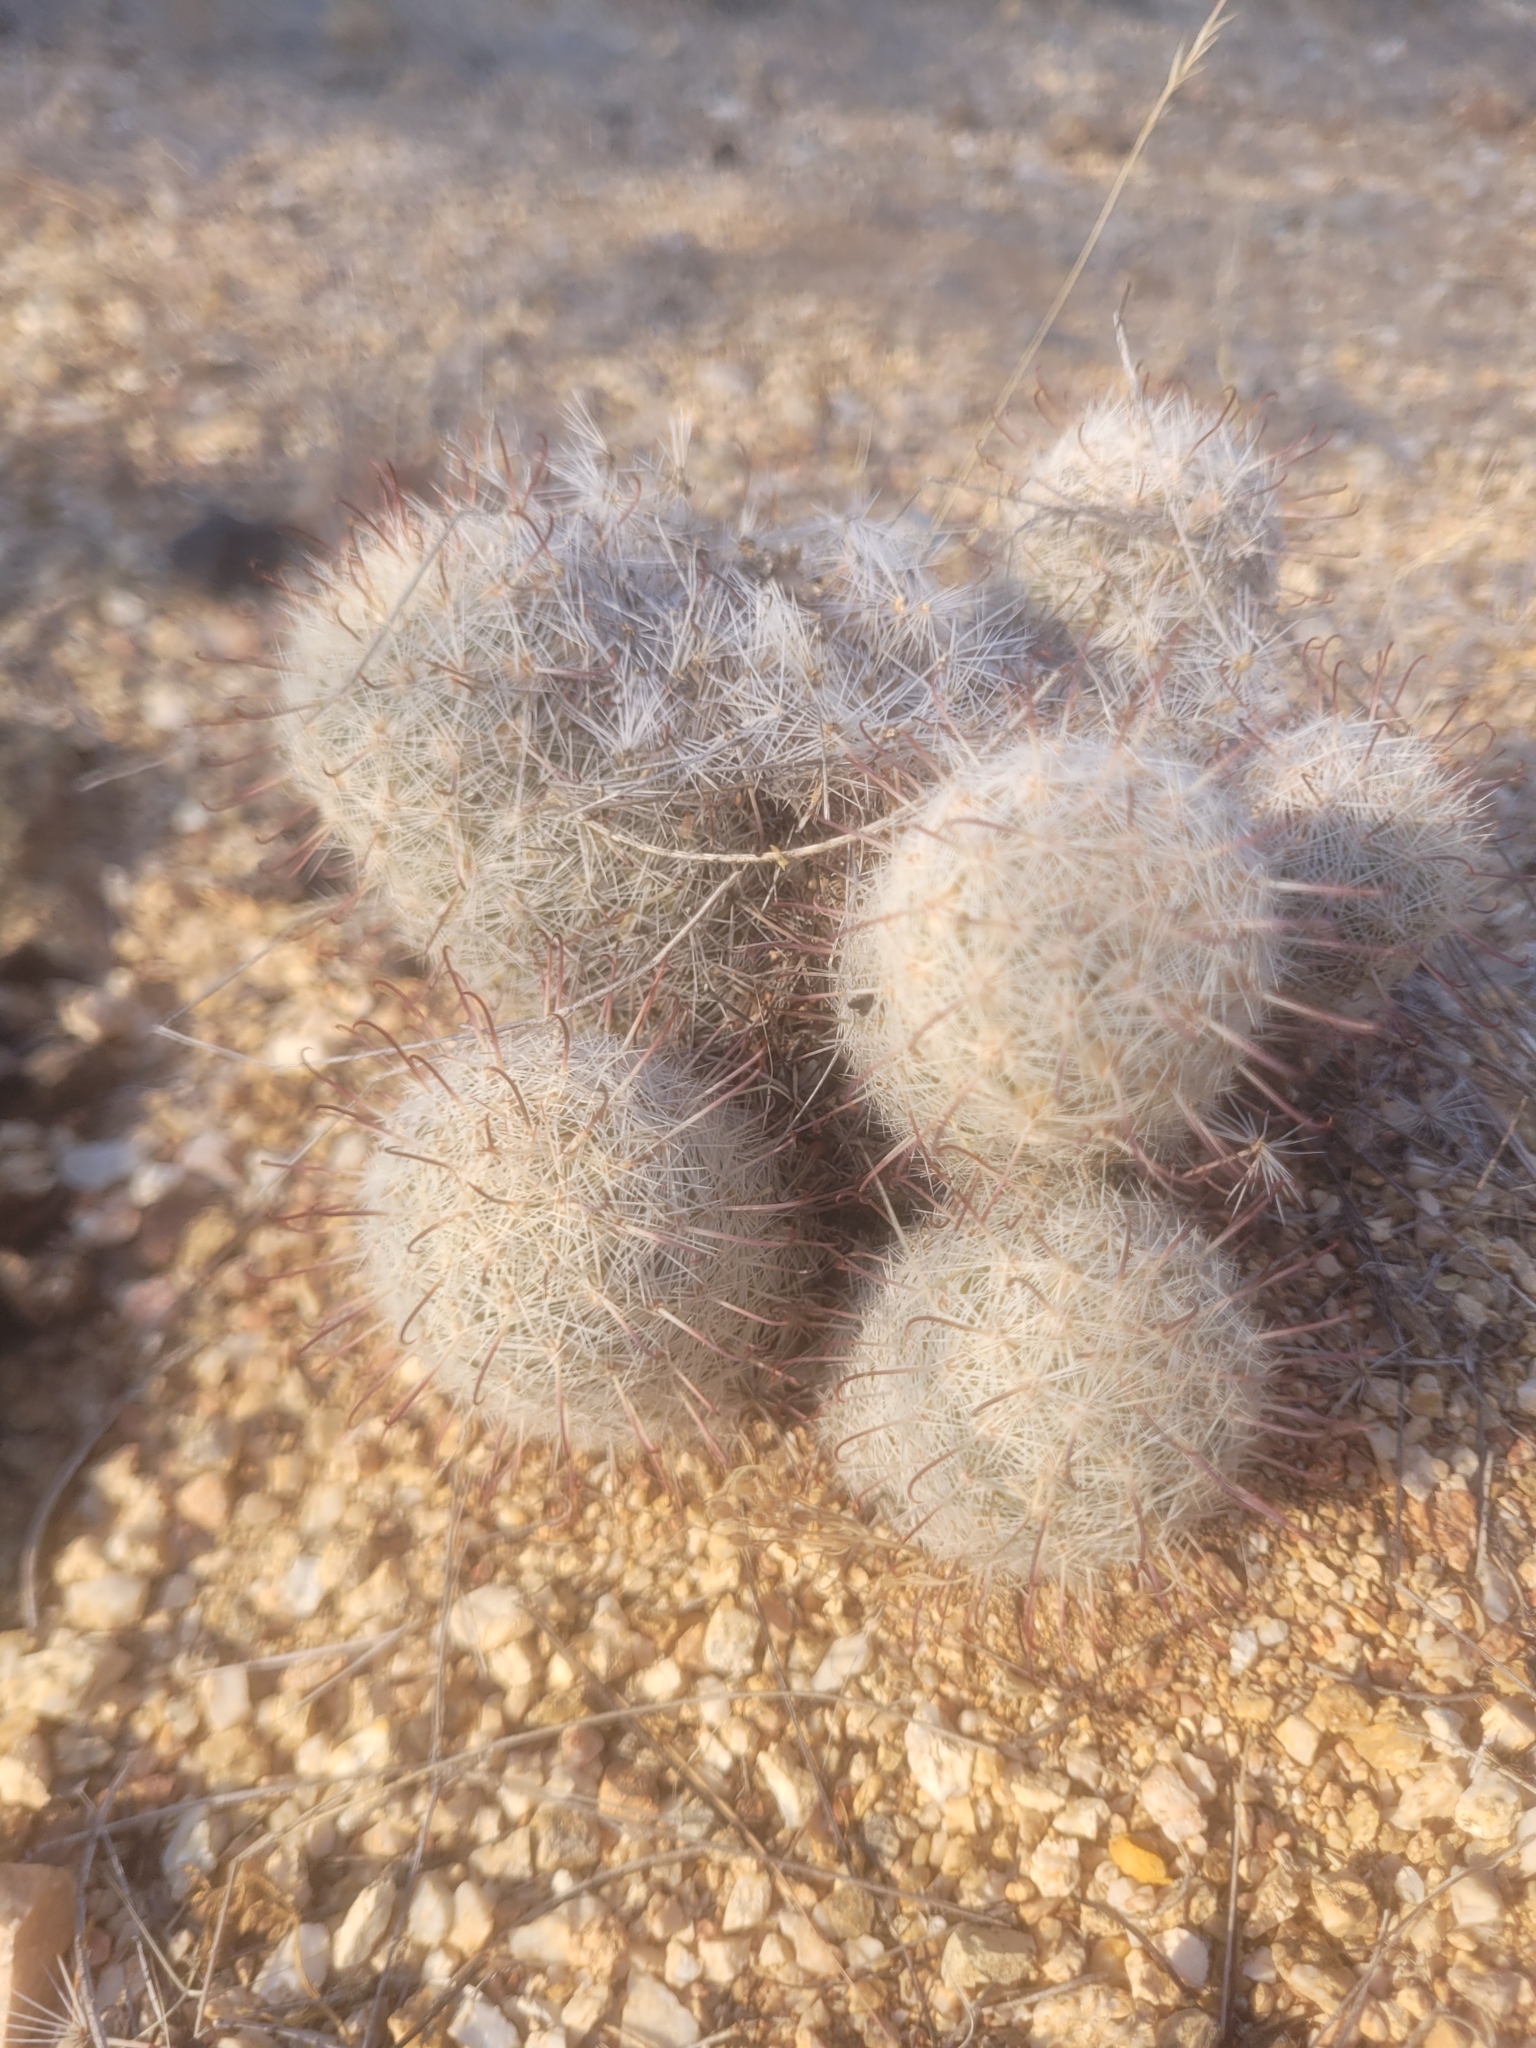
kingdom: Plantae
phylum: Tracheophyta
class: Magnoliopsida
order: Caryophyllales
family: Cactaceae
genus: Cochemiea
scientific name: Cochemiea grahamii
